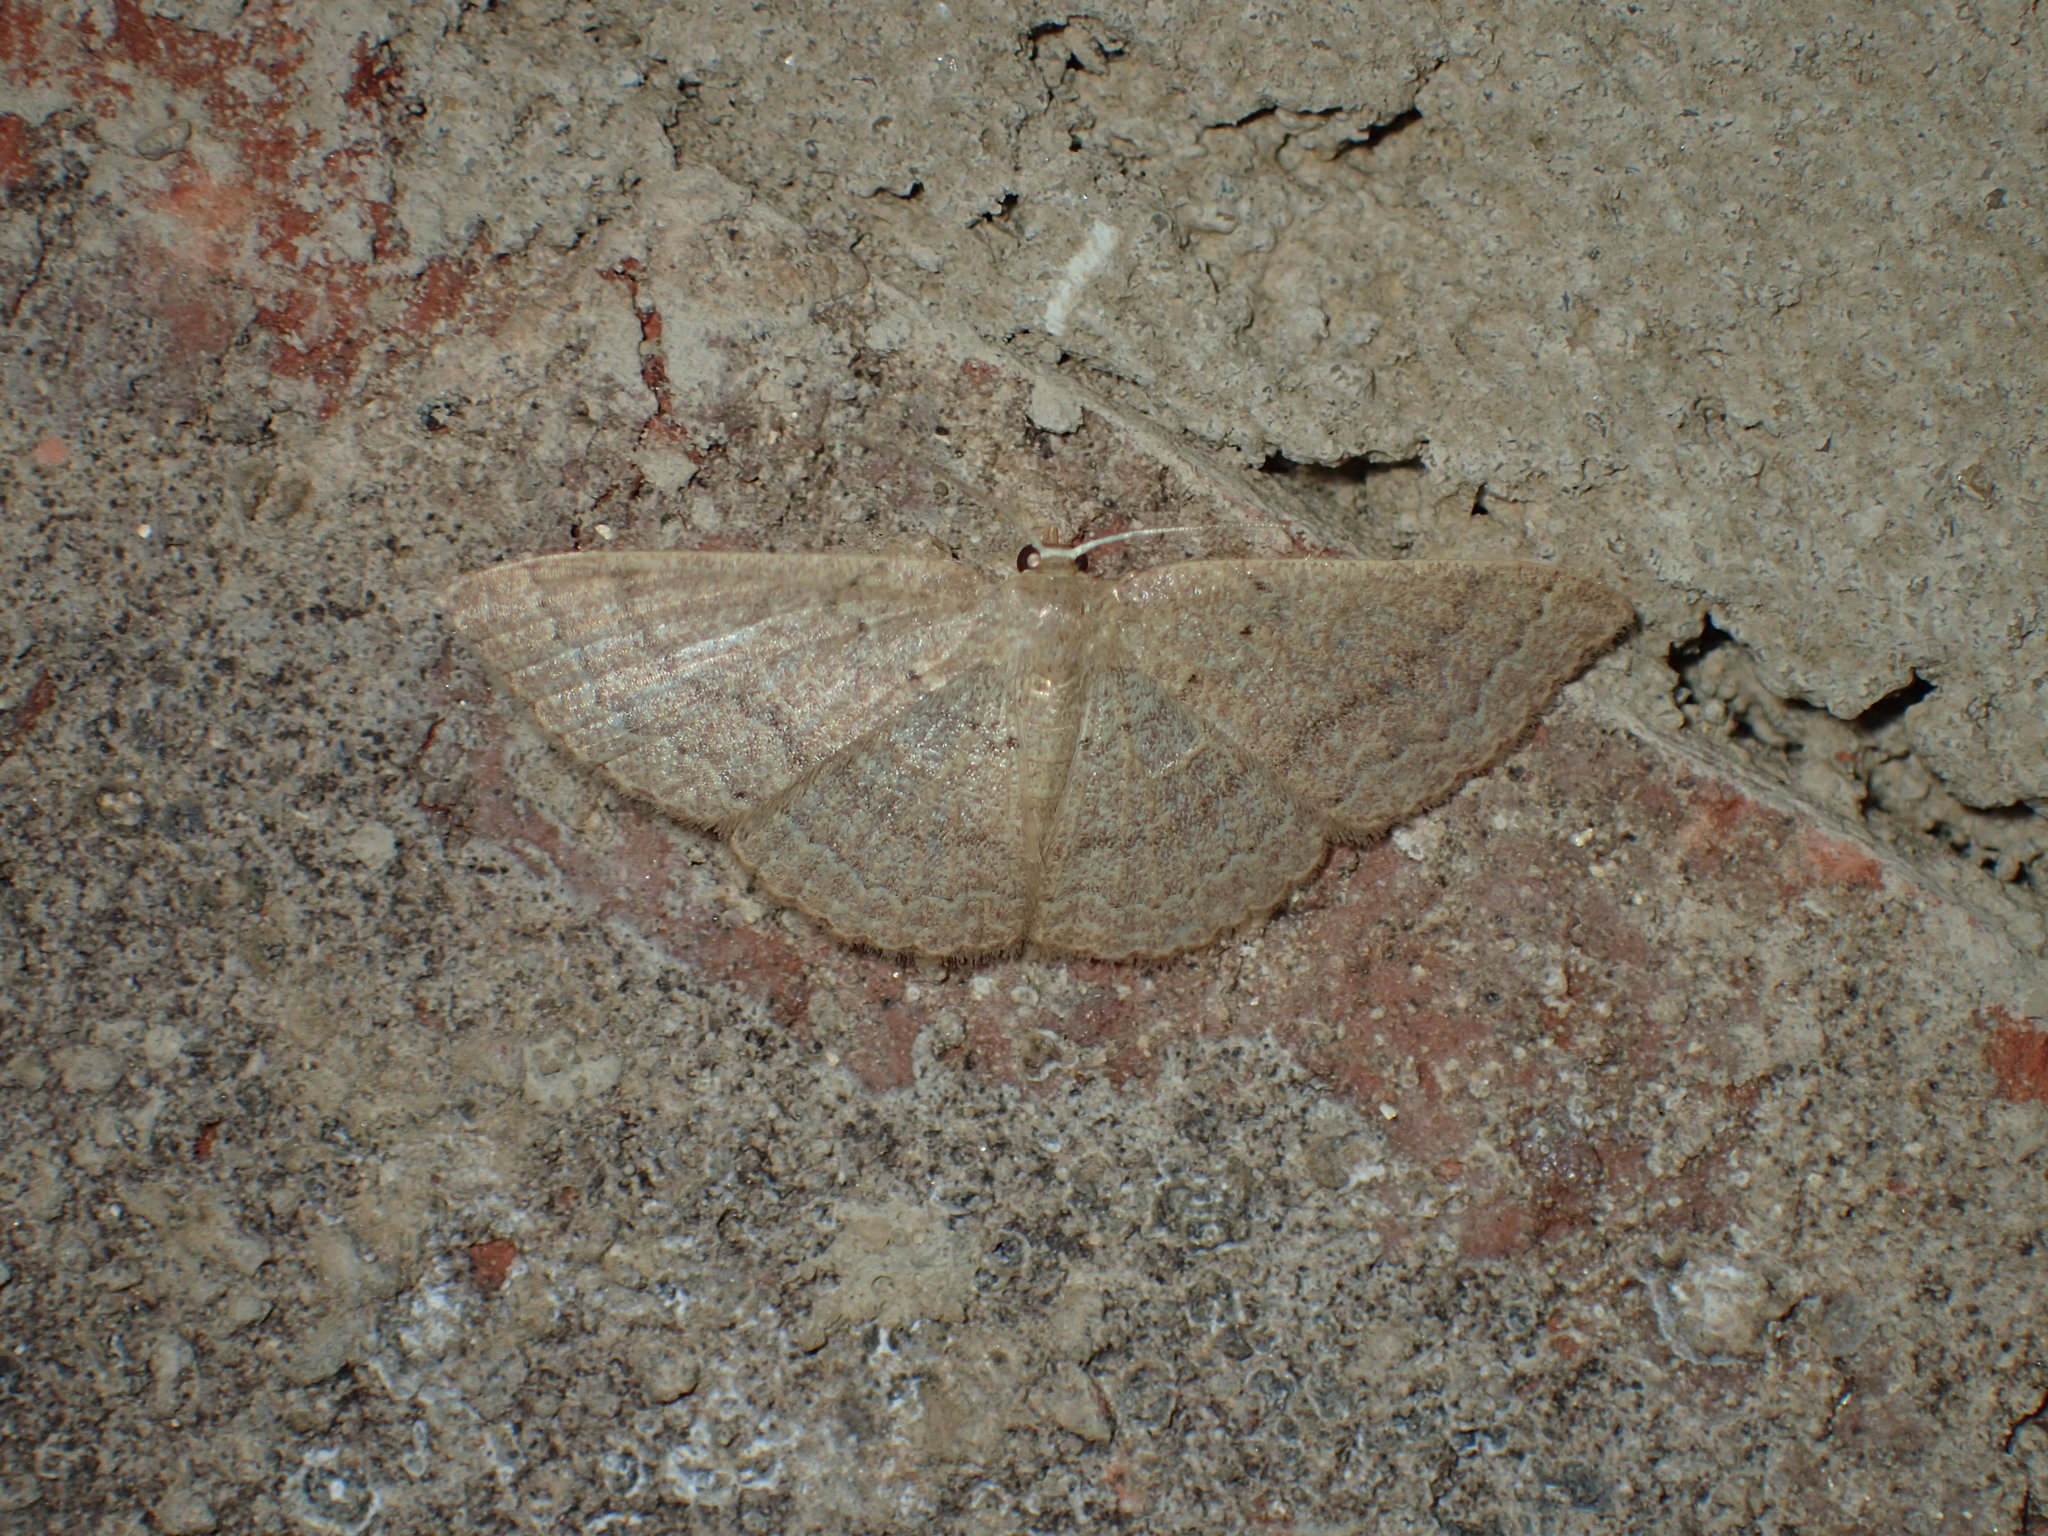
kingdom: Animalia
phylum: Arthropoda
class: Insecta
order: Lepidoptera
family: Geometridae
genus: Pleuroprucha
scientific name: Pleuroprucha insulsaria
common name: Common tan wave
